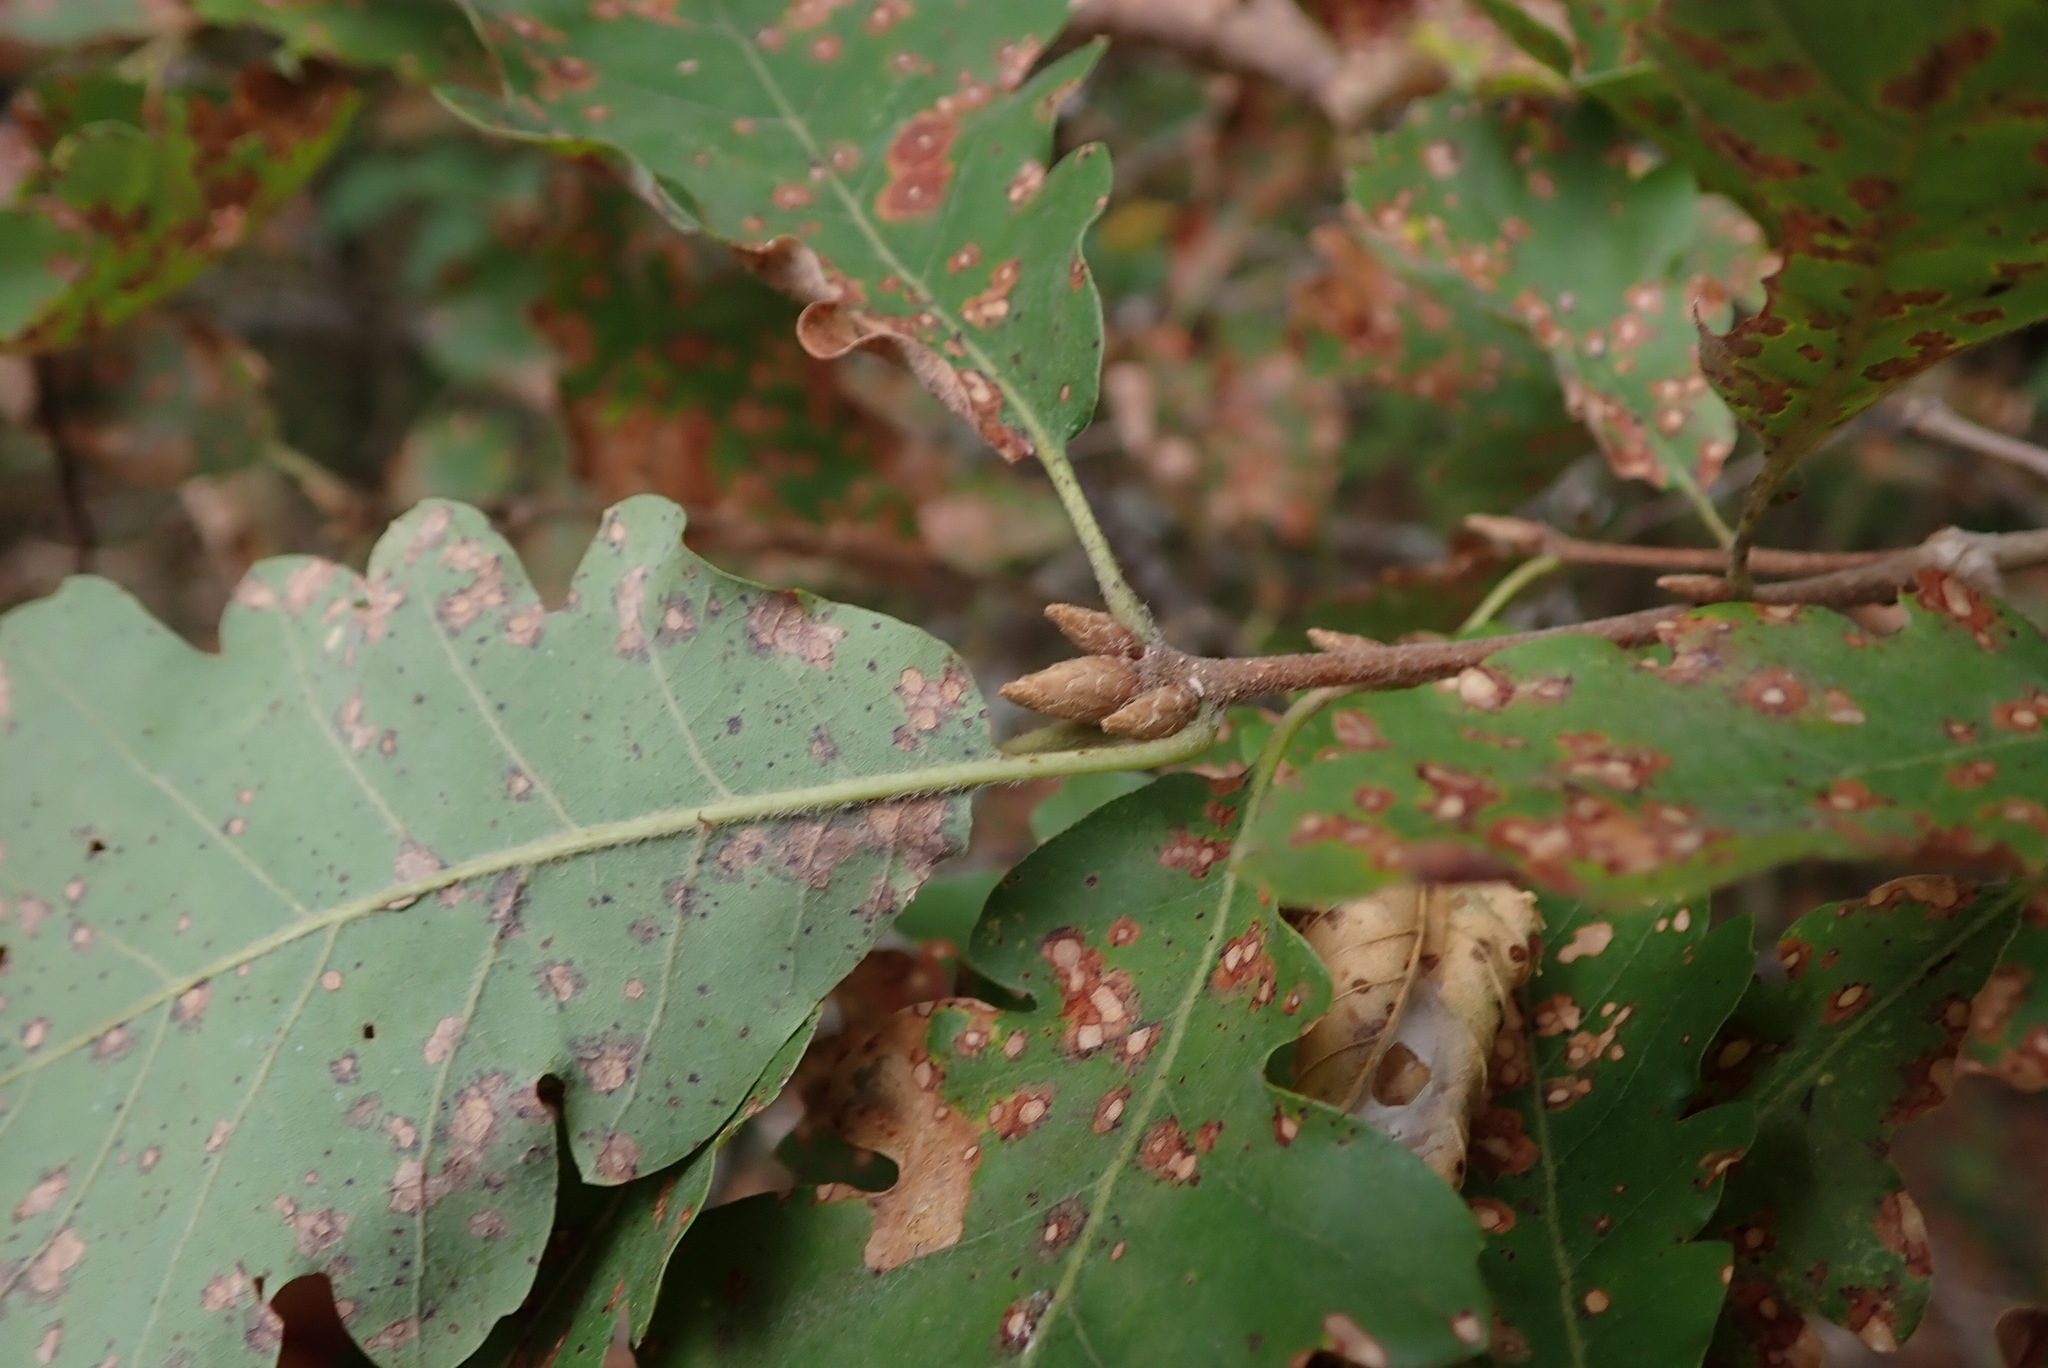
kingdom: Plantae
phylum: Tracheophyta
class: Magnoliopsida
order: Fagales
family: Fagaceae
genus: Quercus
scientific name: Quercus pubescens
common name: Downy oak
